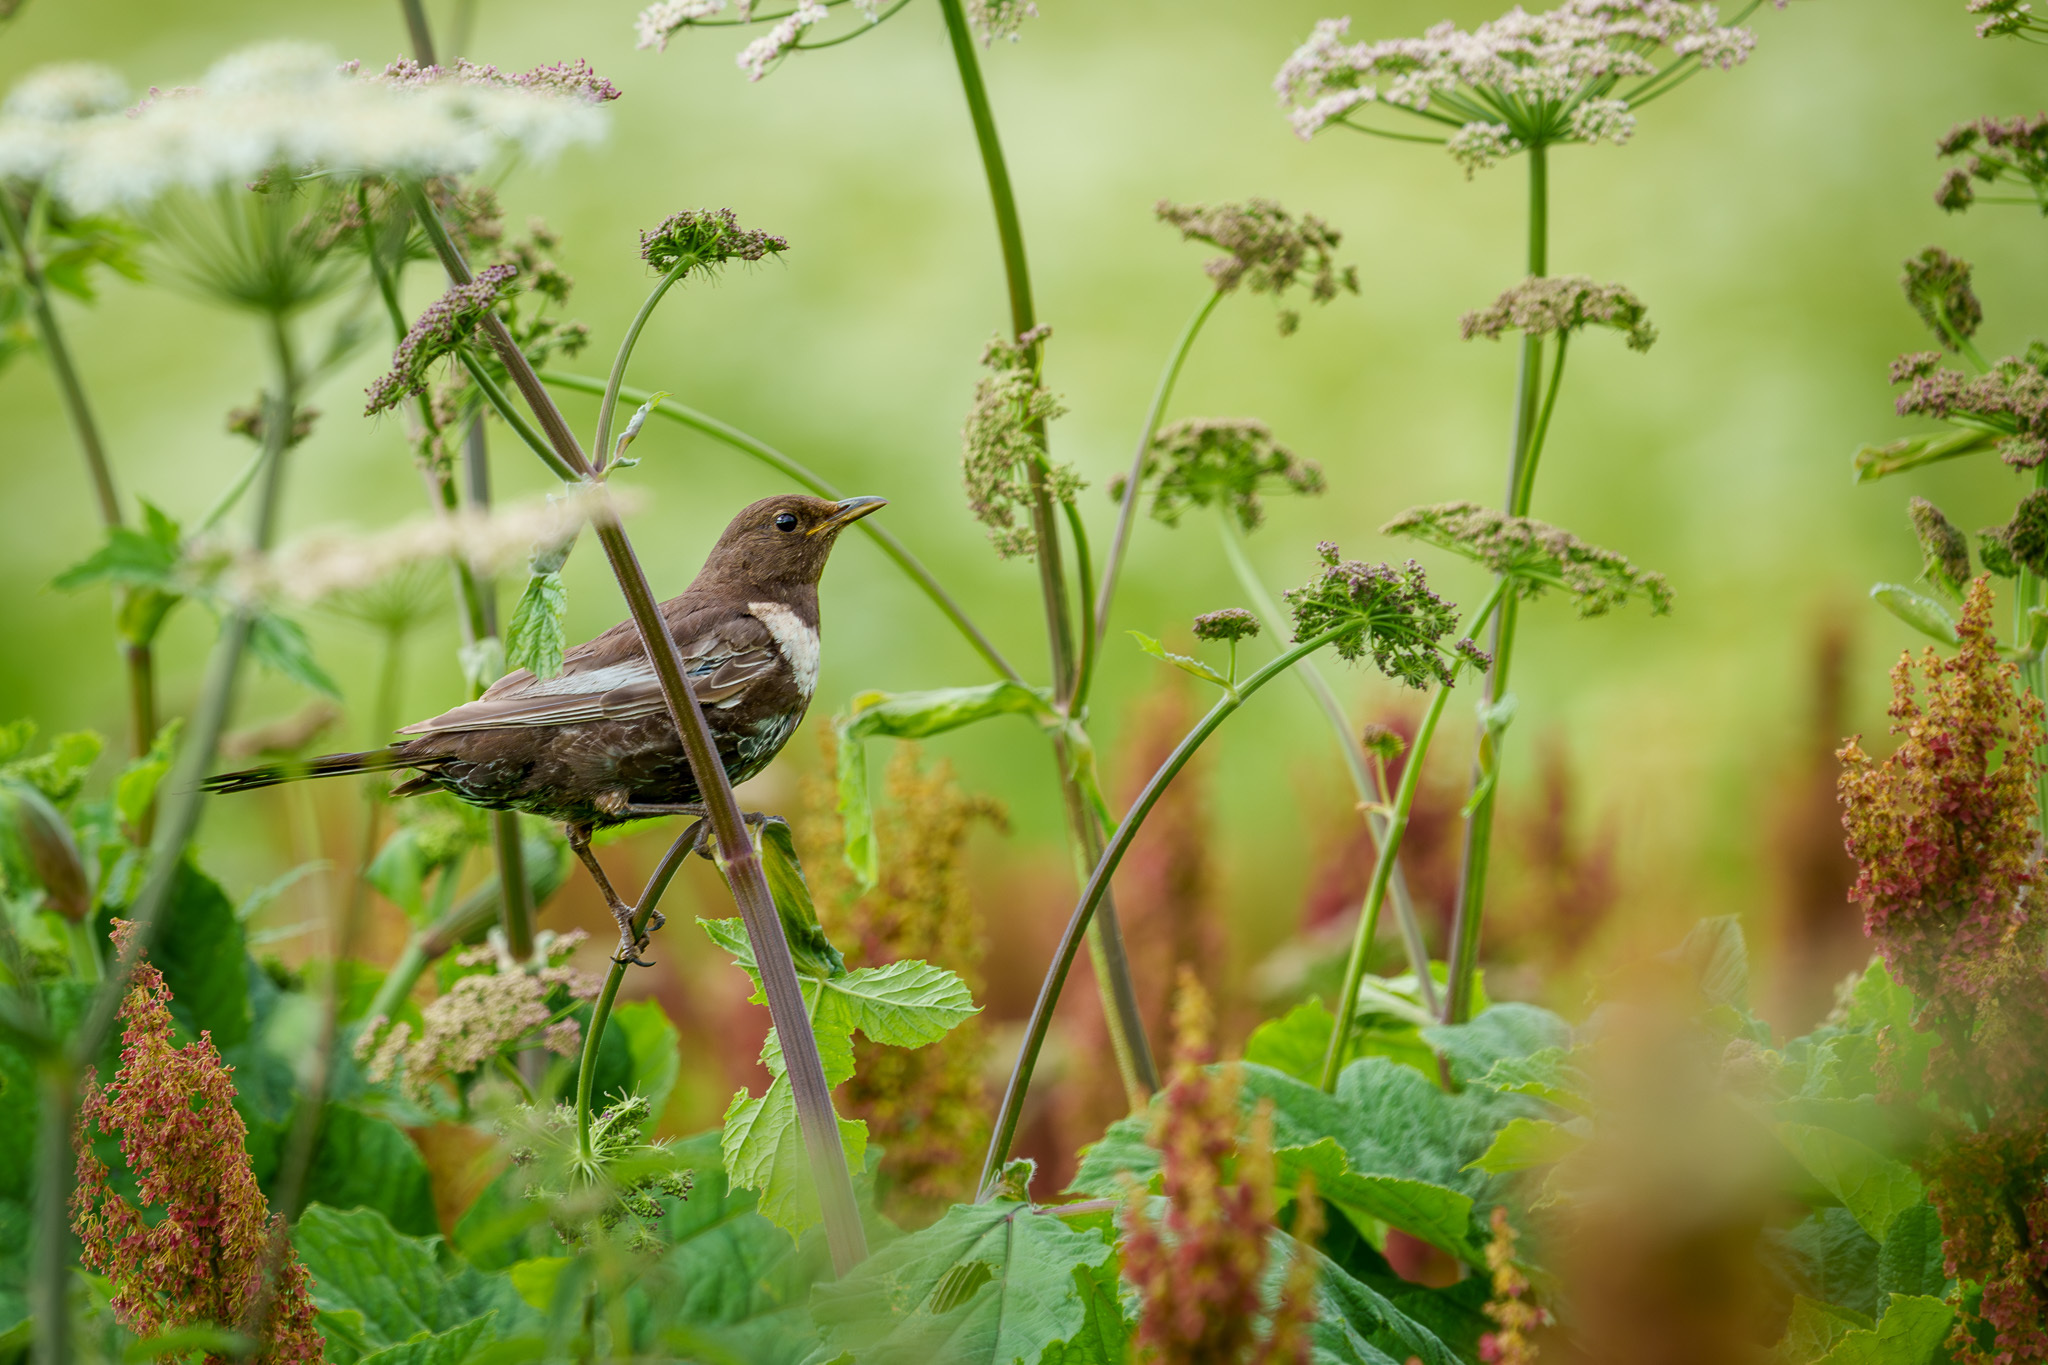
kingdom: Animalia
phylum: Chordata
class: Aves
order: Passeriformes
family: Turdidae
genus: Turdus
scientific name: Turdus torquatus
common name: Ring ouzel
